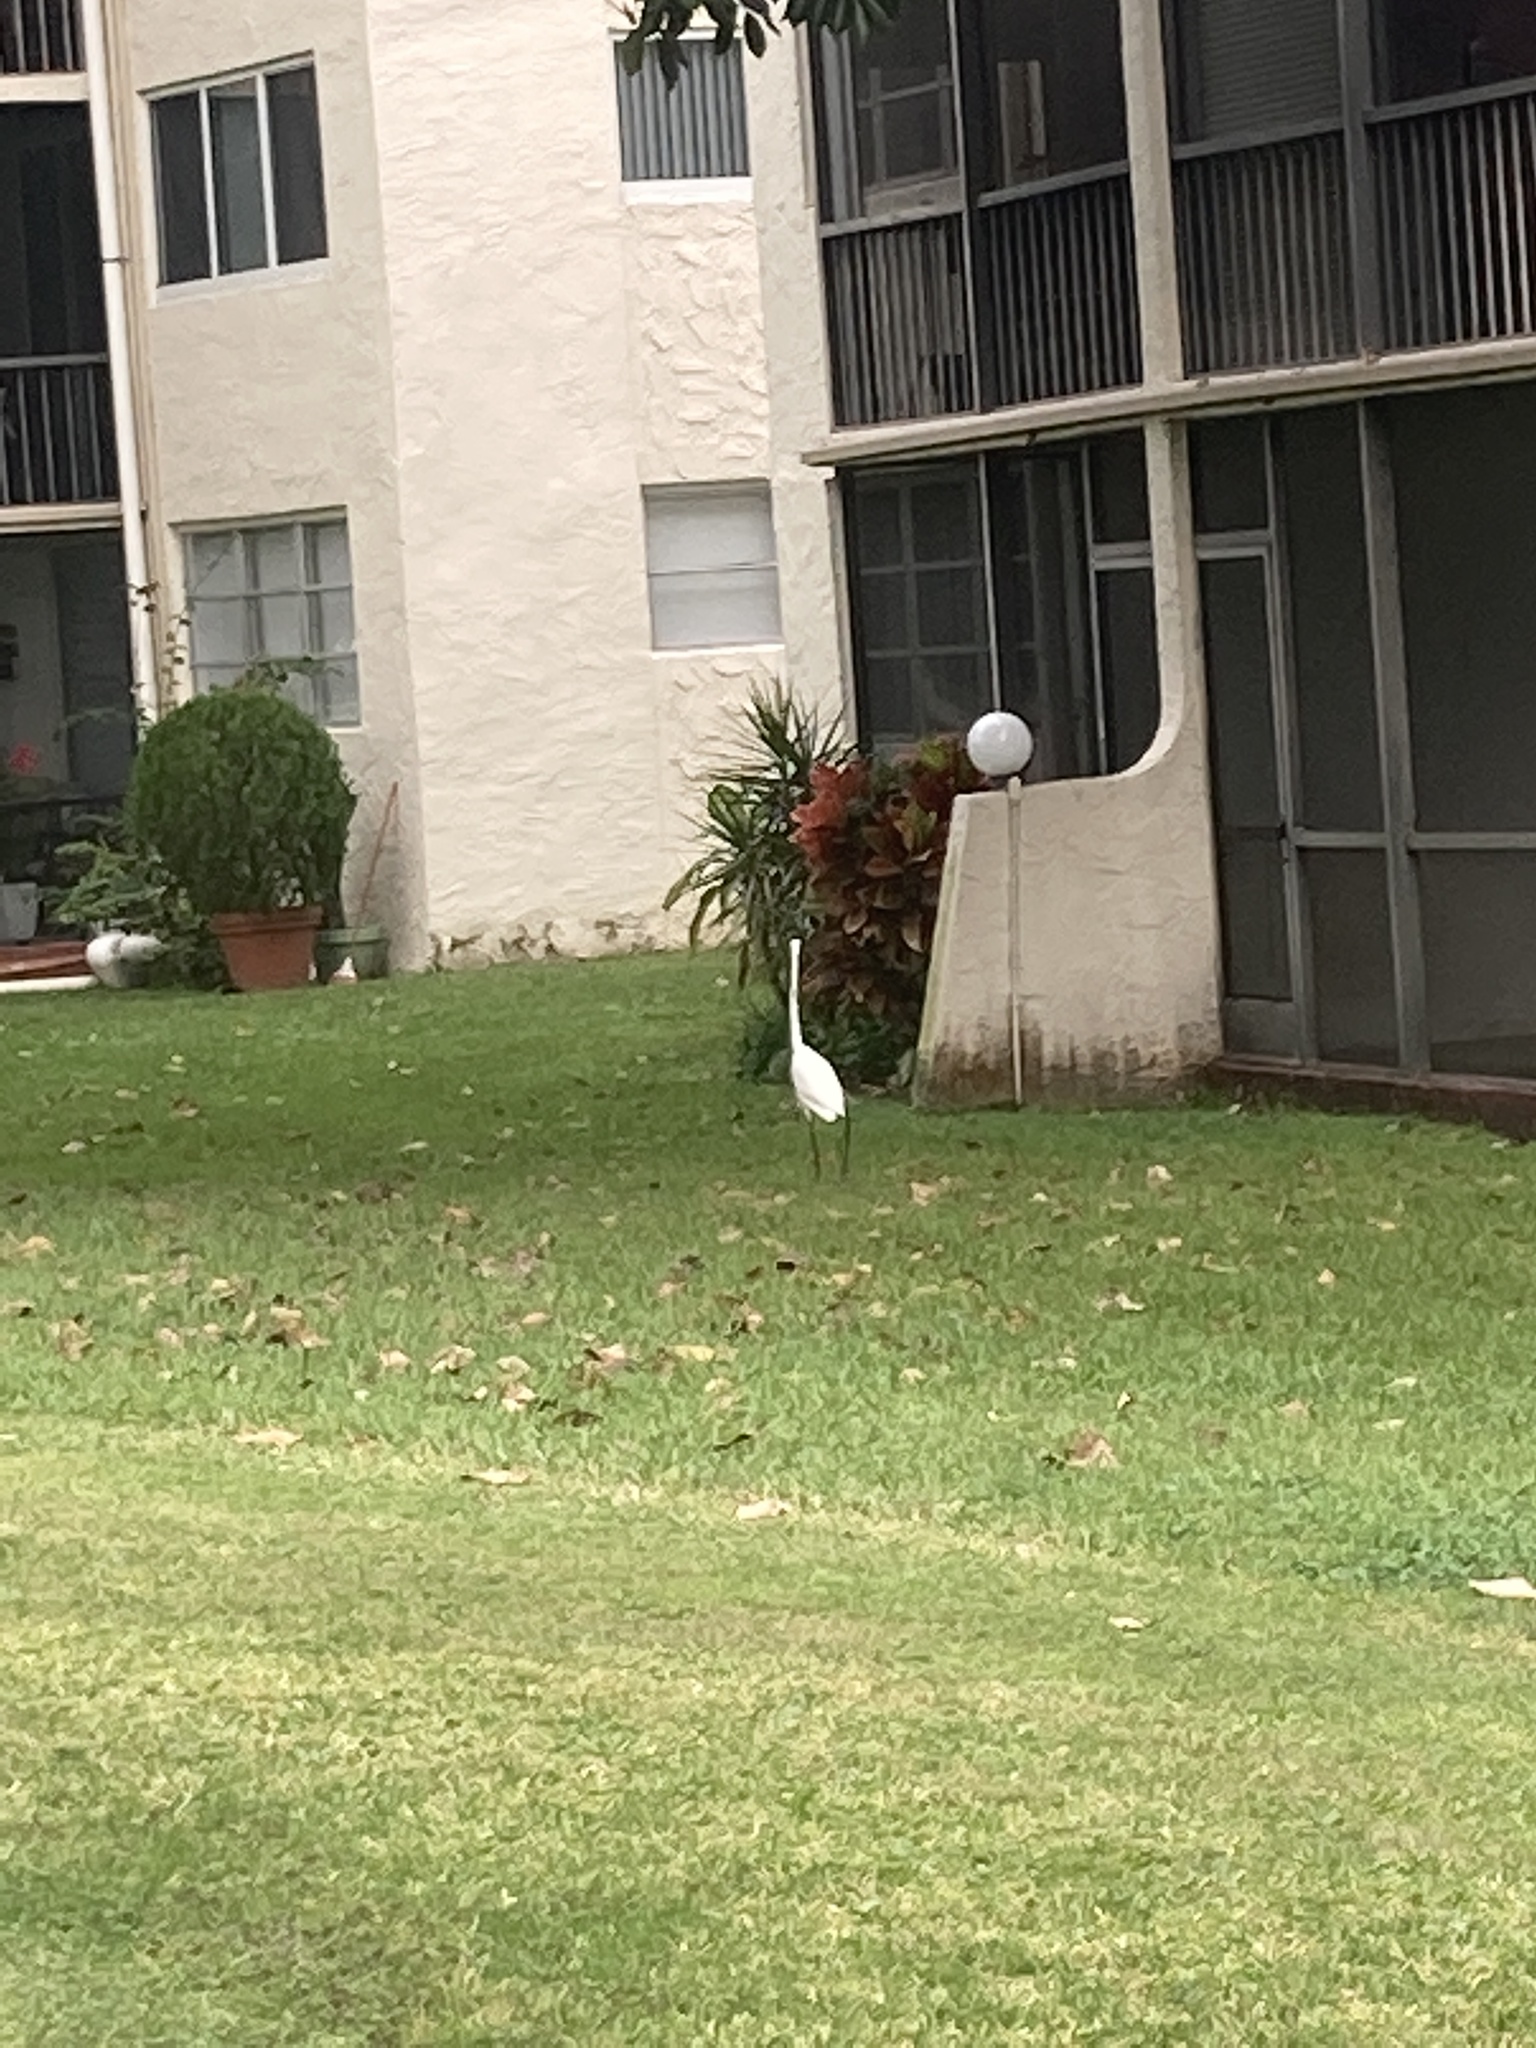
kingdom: Animalia
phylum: Chordata
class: Aves
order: Pelecaniformes
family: Ardeidae
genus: Ardea
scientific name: Ardea alba
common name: Great egret
